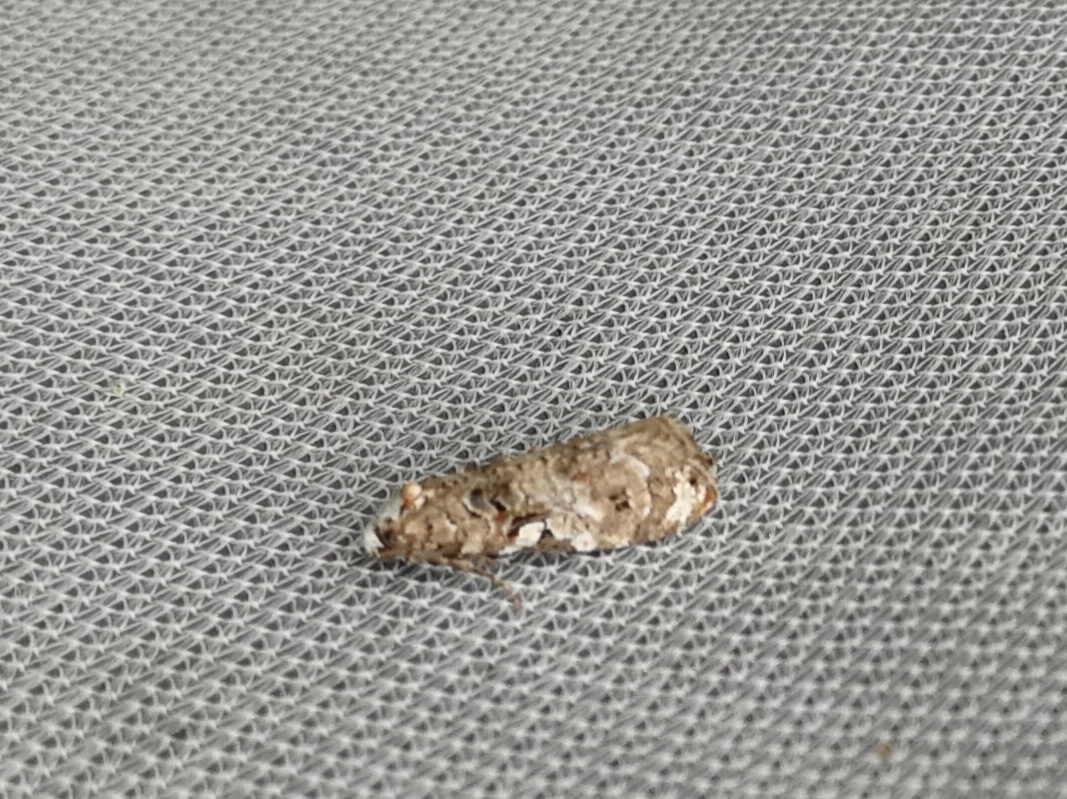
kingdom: Animalia
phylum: Arthropoda
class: Insecta
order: Lepidoptera
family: Tortricidae
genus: Phtheochroa
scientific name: Phtheochroa rugosana
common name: Rough-winged conch
